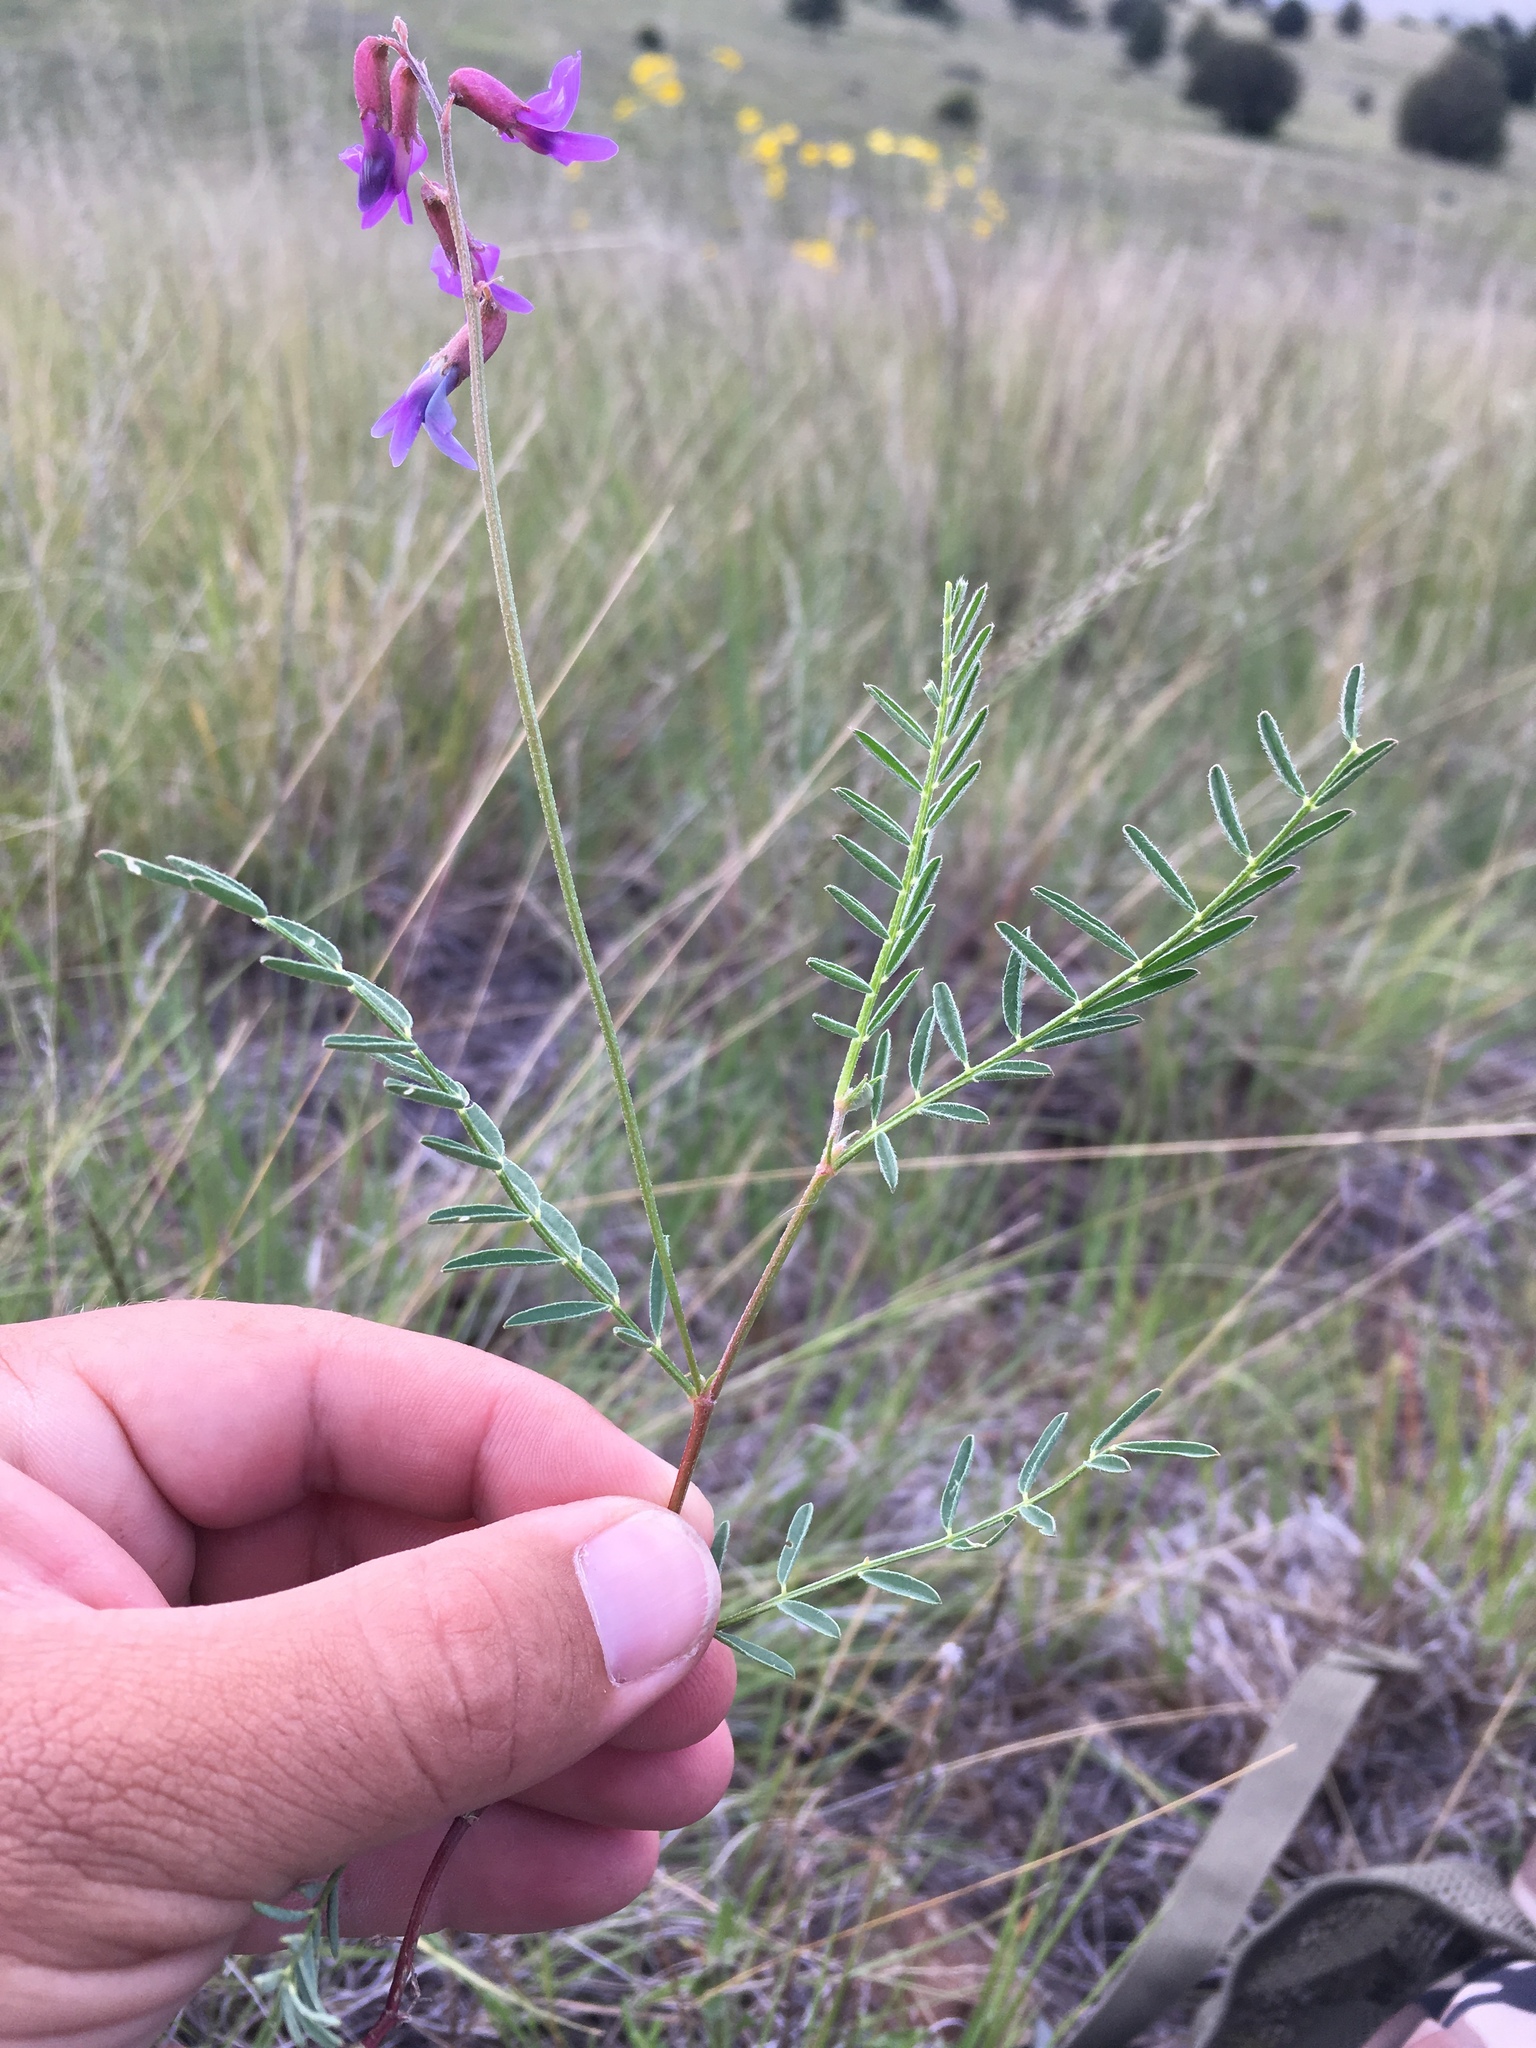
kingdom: Plantae
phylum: Tracheophyta
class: Magnoliopsida
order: Fabales
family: Fabaceae
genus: Astragalus
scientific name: Astragalus flexuosus
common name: Pliant milk-vetch
